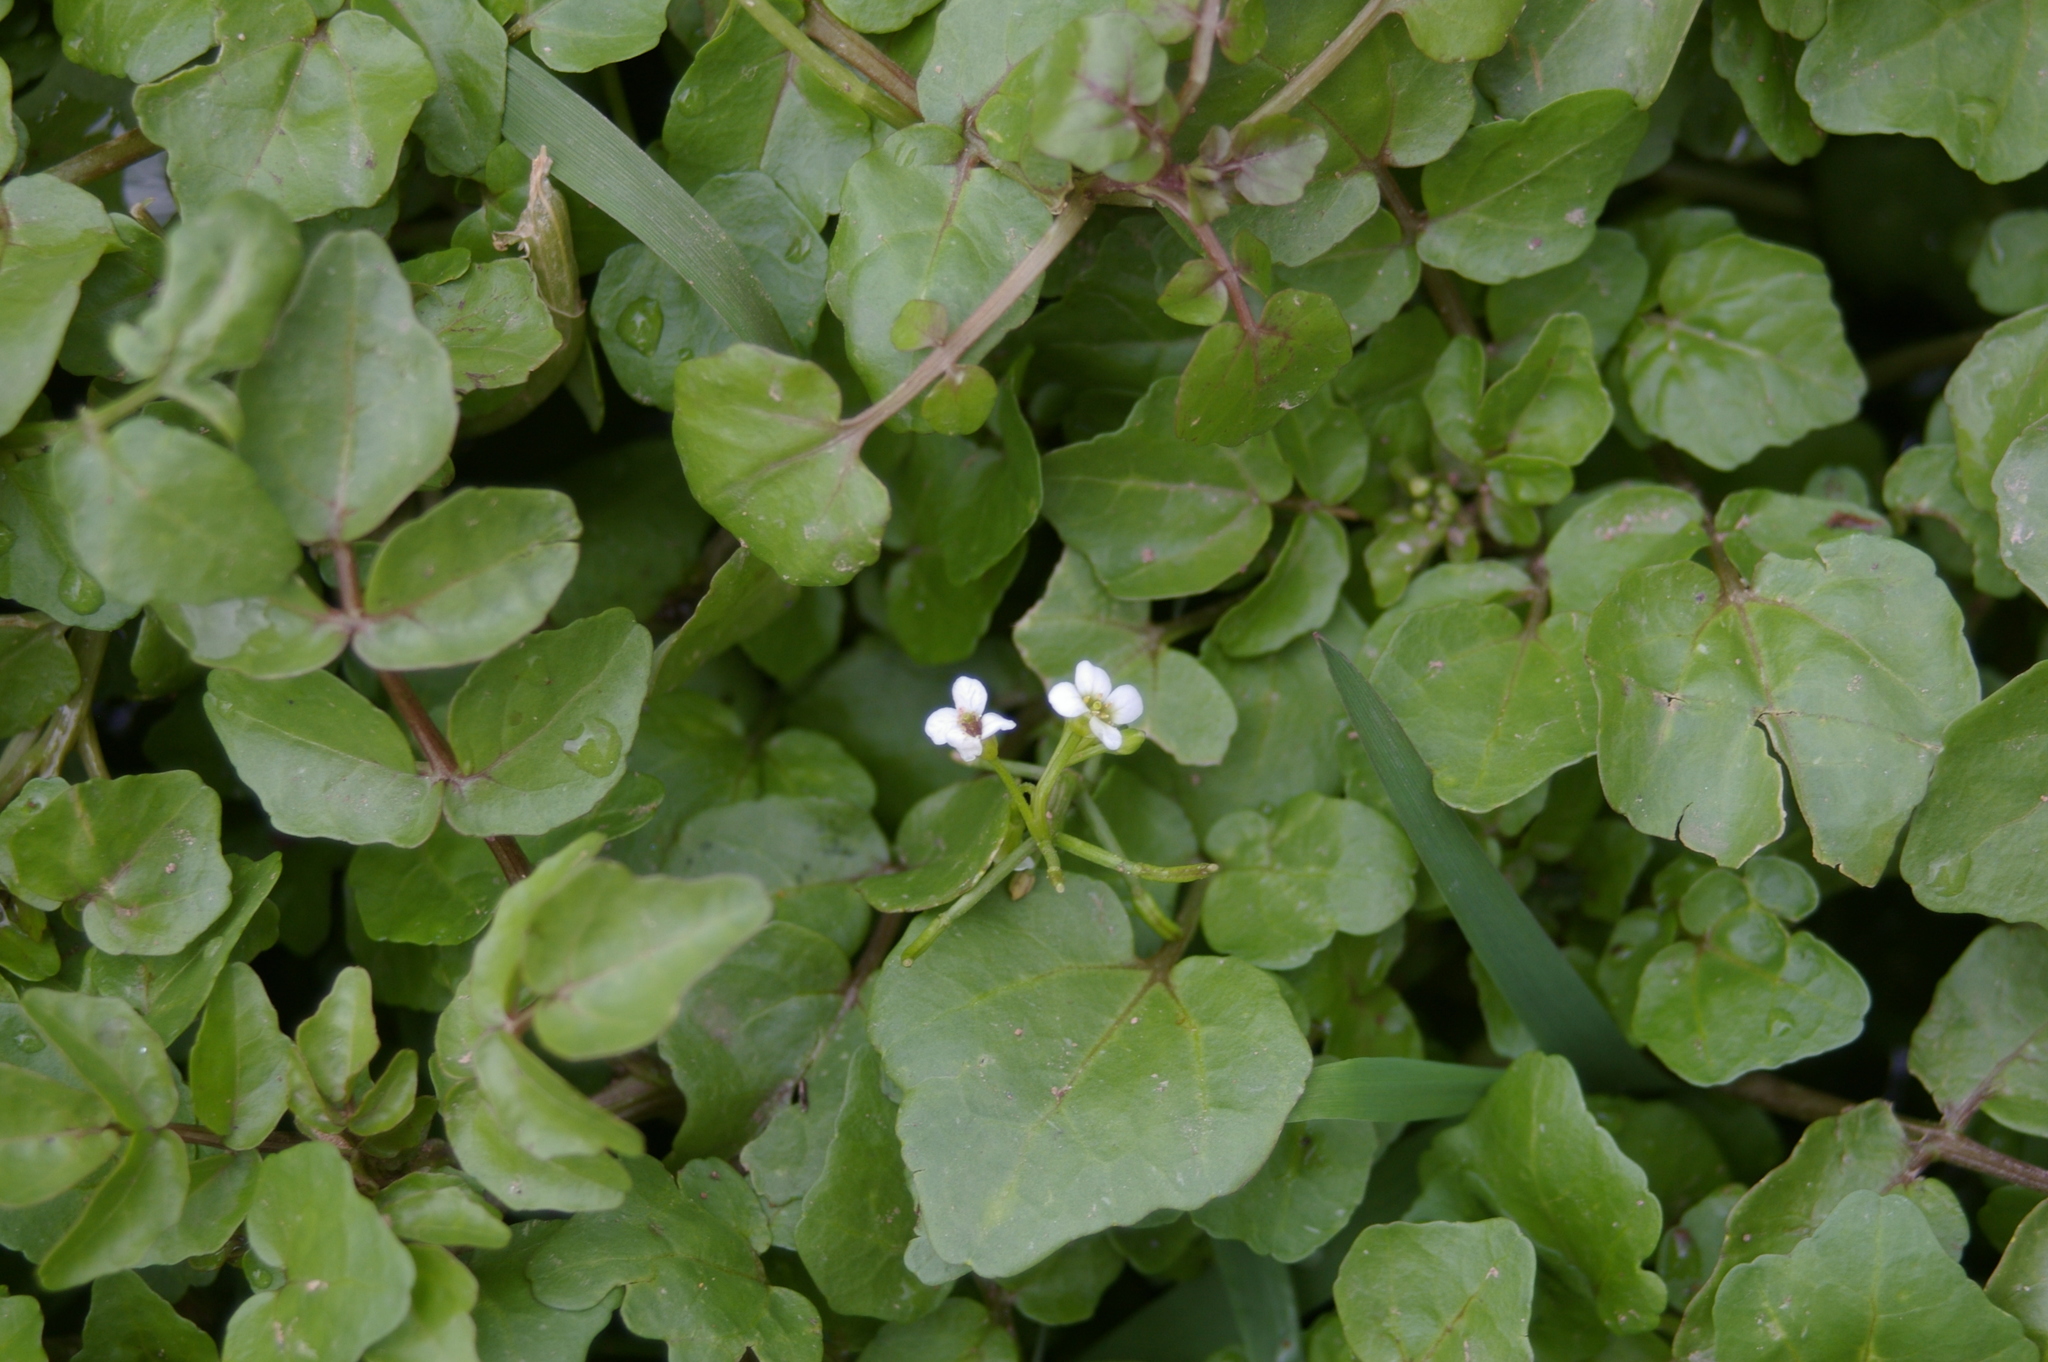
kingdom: Plantae
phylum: Tracheophyta
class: Magnoliopsida
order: Brassicales
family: Brassicaceae
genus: Nasturtium
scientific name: Nasturtium officinale
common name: Watercress
